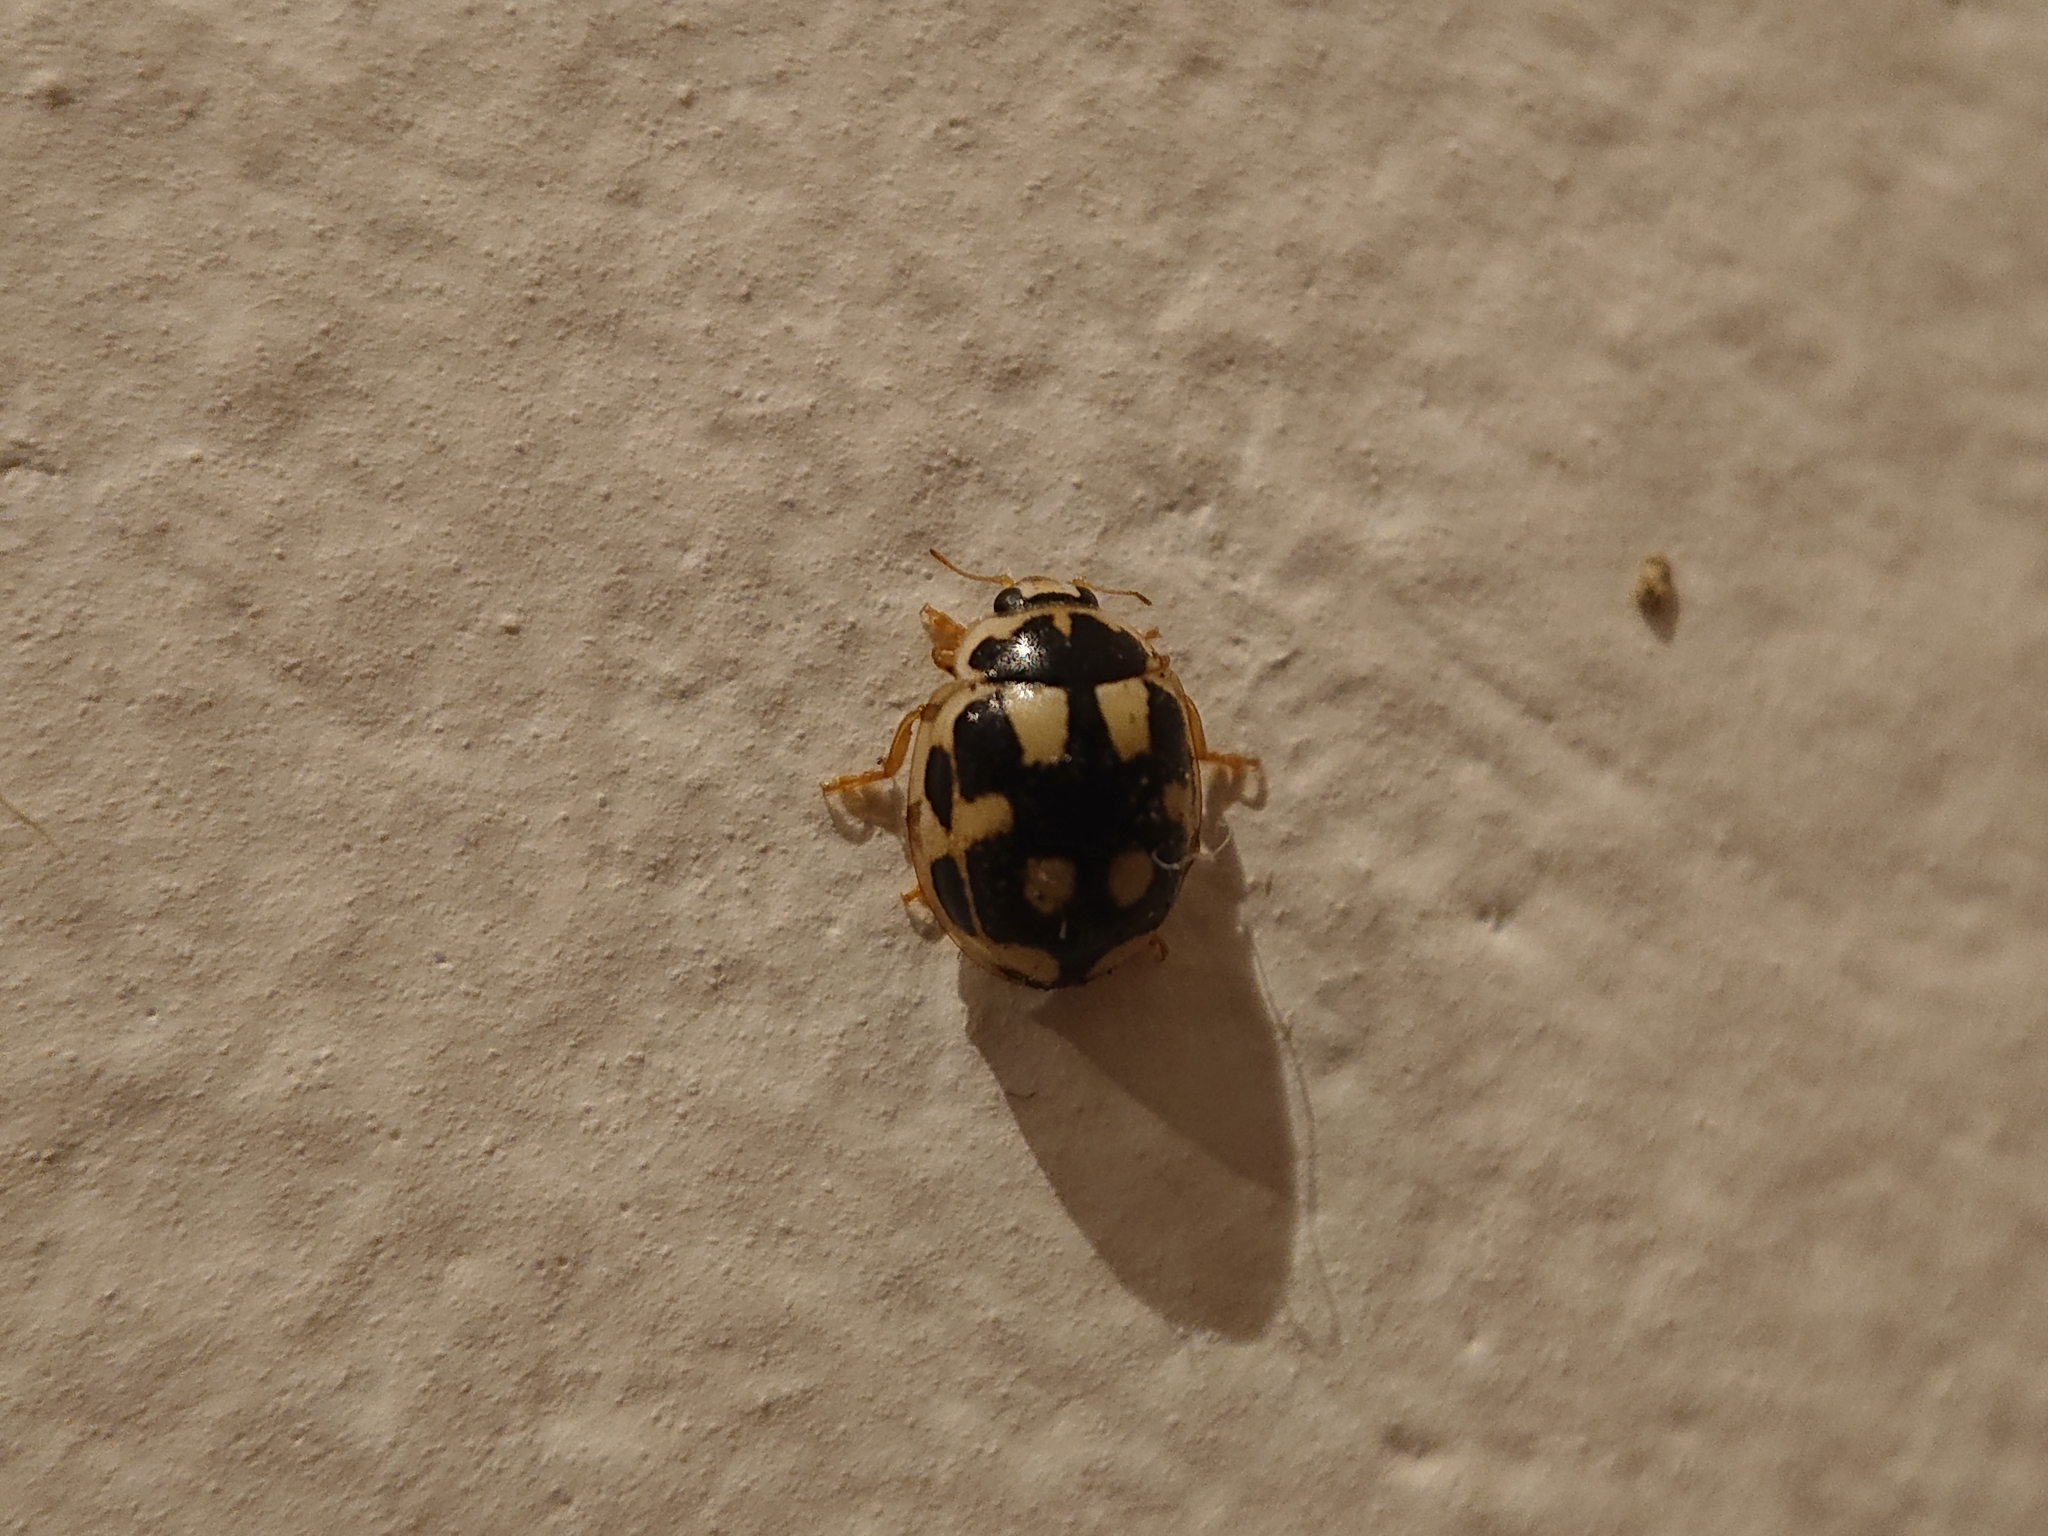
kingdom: Animalia
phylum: Arthropoda
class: Insecta
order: Coleoptera
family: Coccinellidae
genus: Propylaea
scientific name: Propylaea quatuordecimpunctata
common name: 14-spotted ladybird beetle
